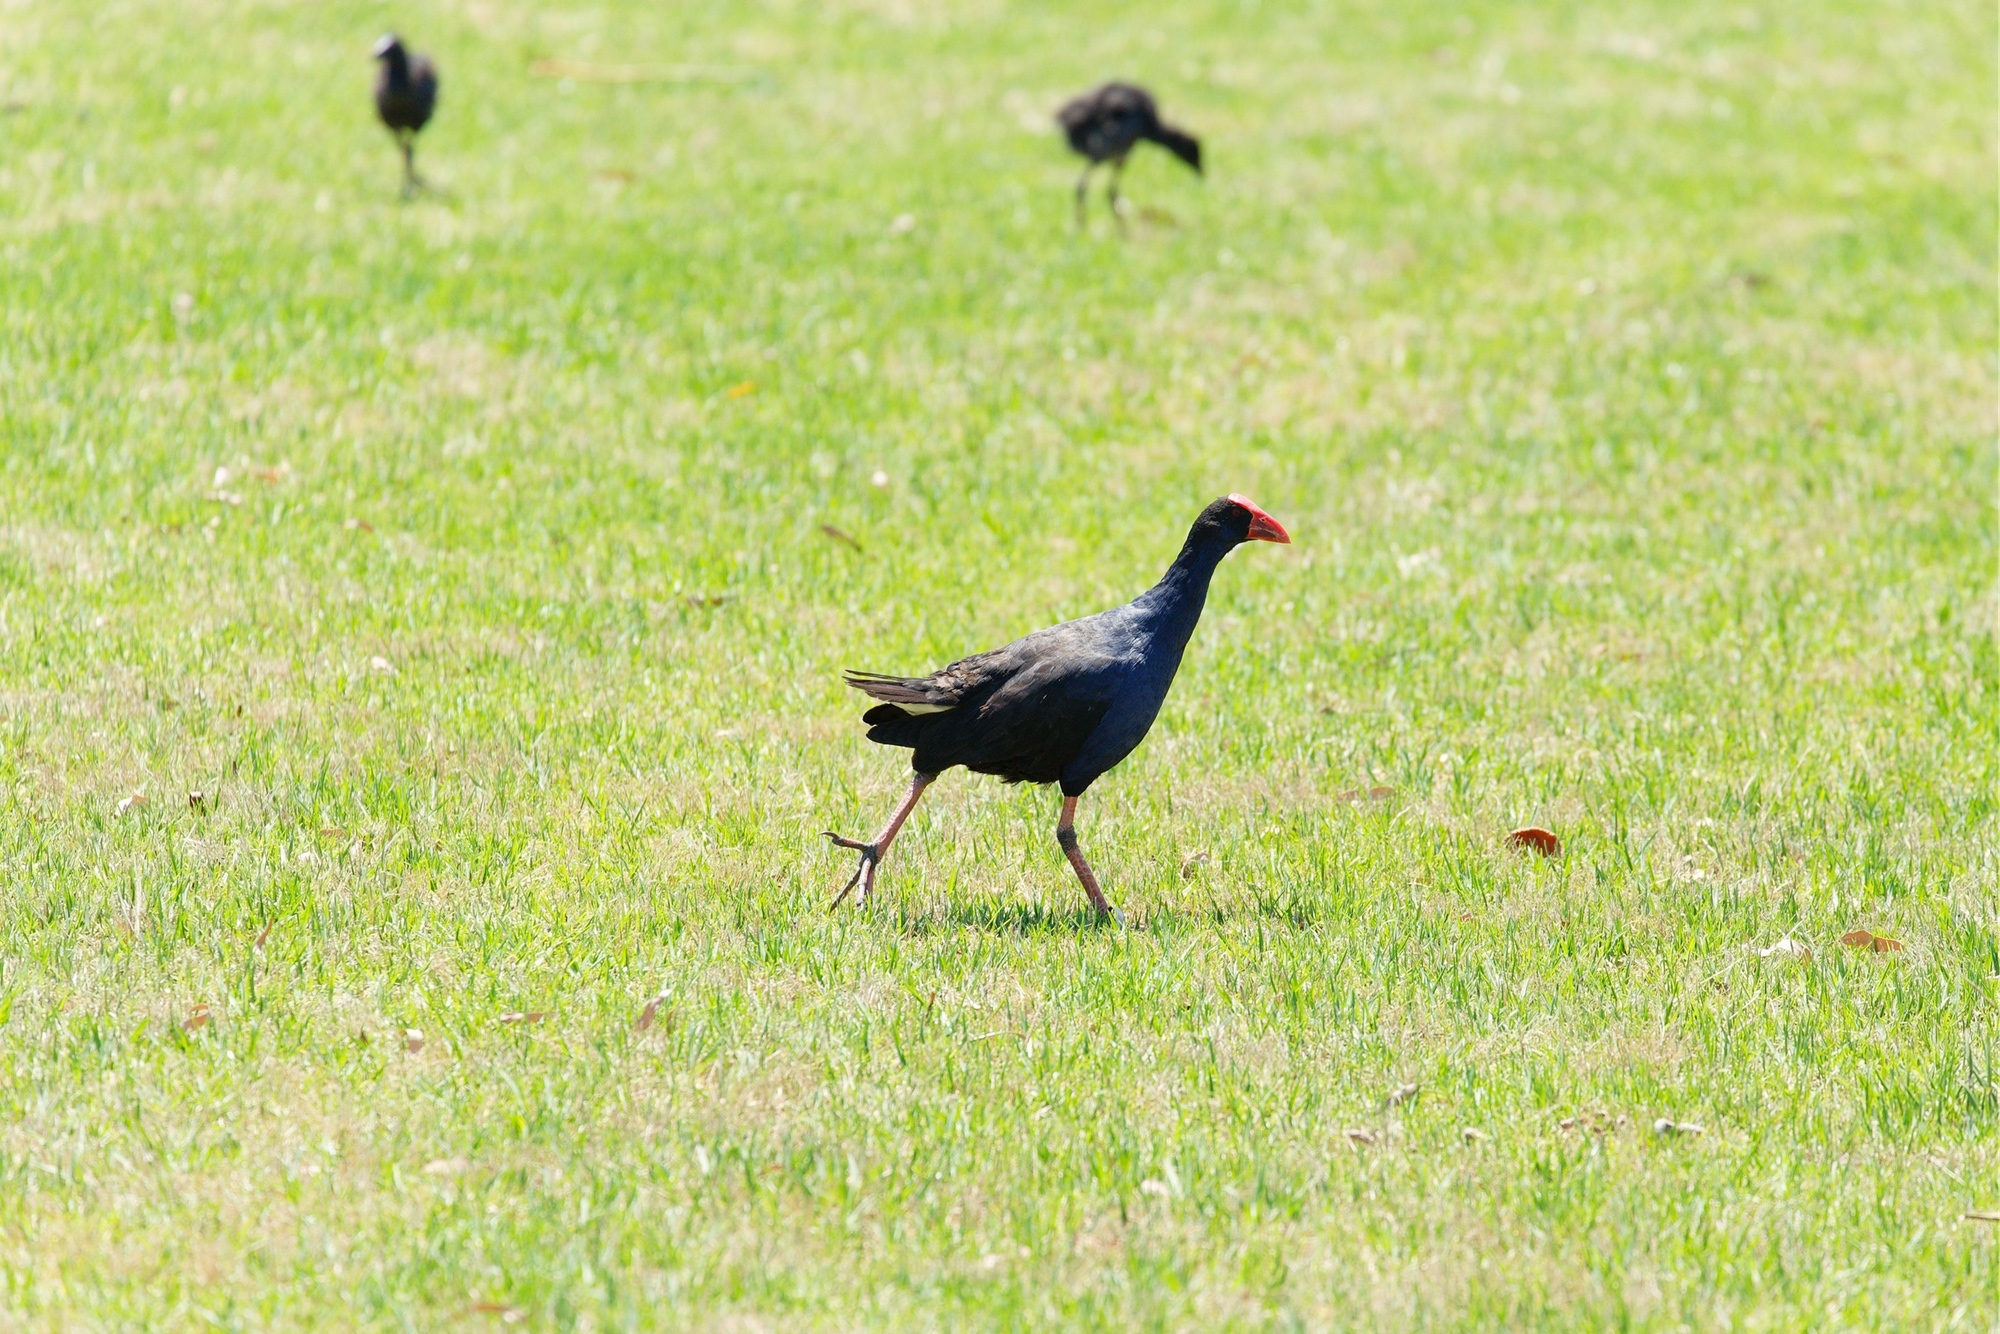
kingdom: Animalia
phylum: Chordata
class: Aves
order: Gruiformes
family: Rallidae
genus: Porphyrio
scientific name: Porphyrio melanotus
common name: Australasian swamphen
